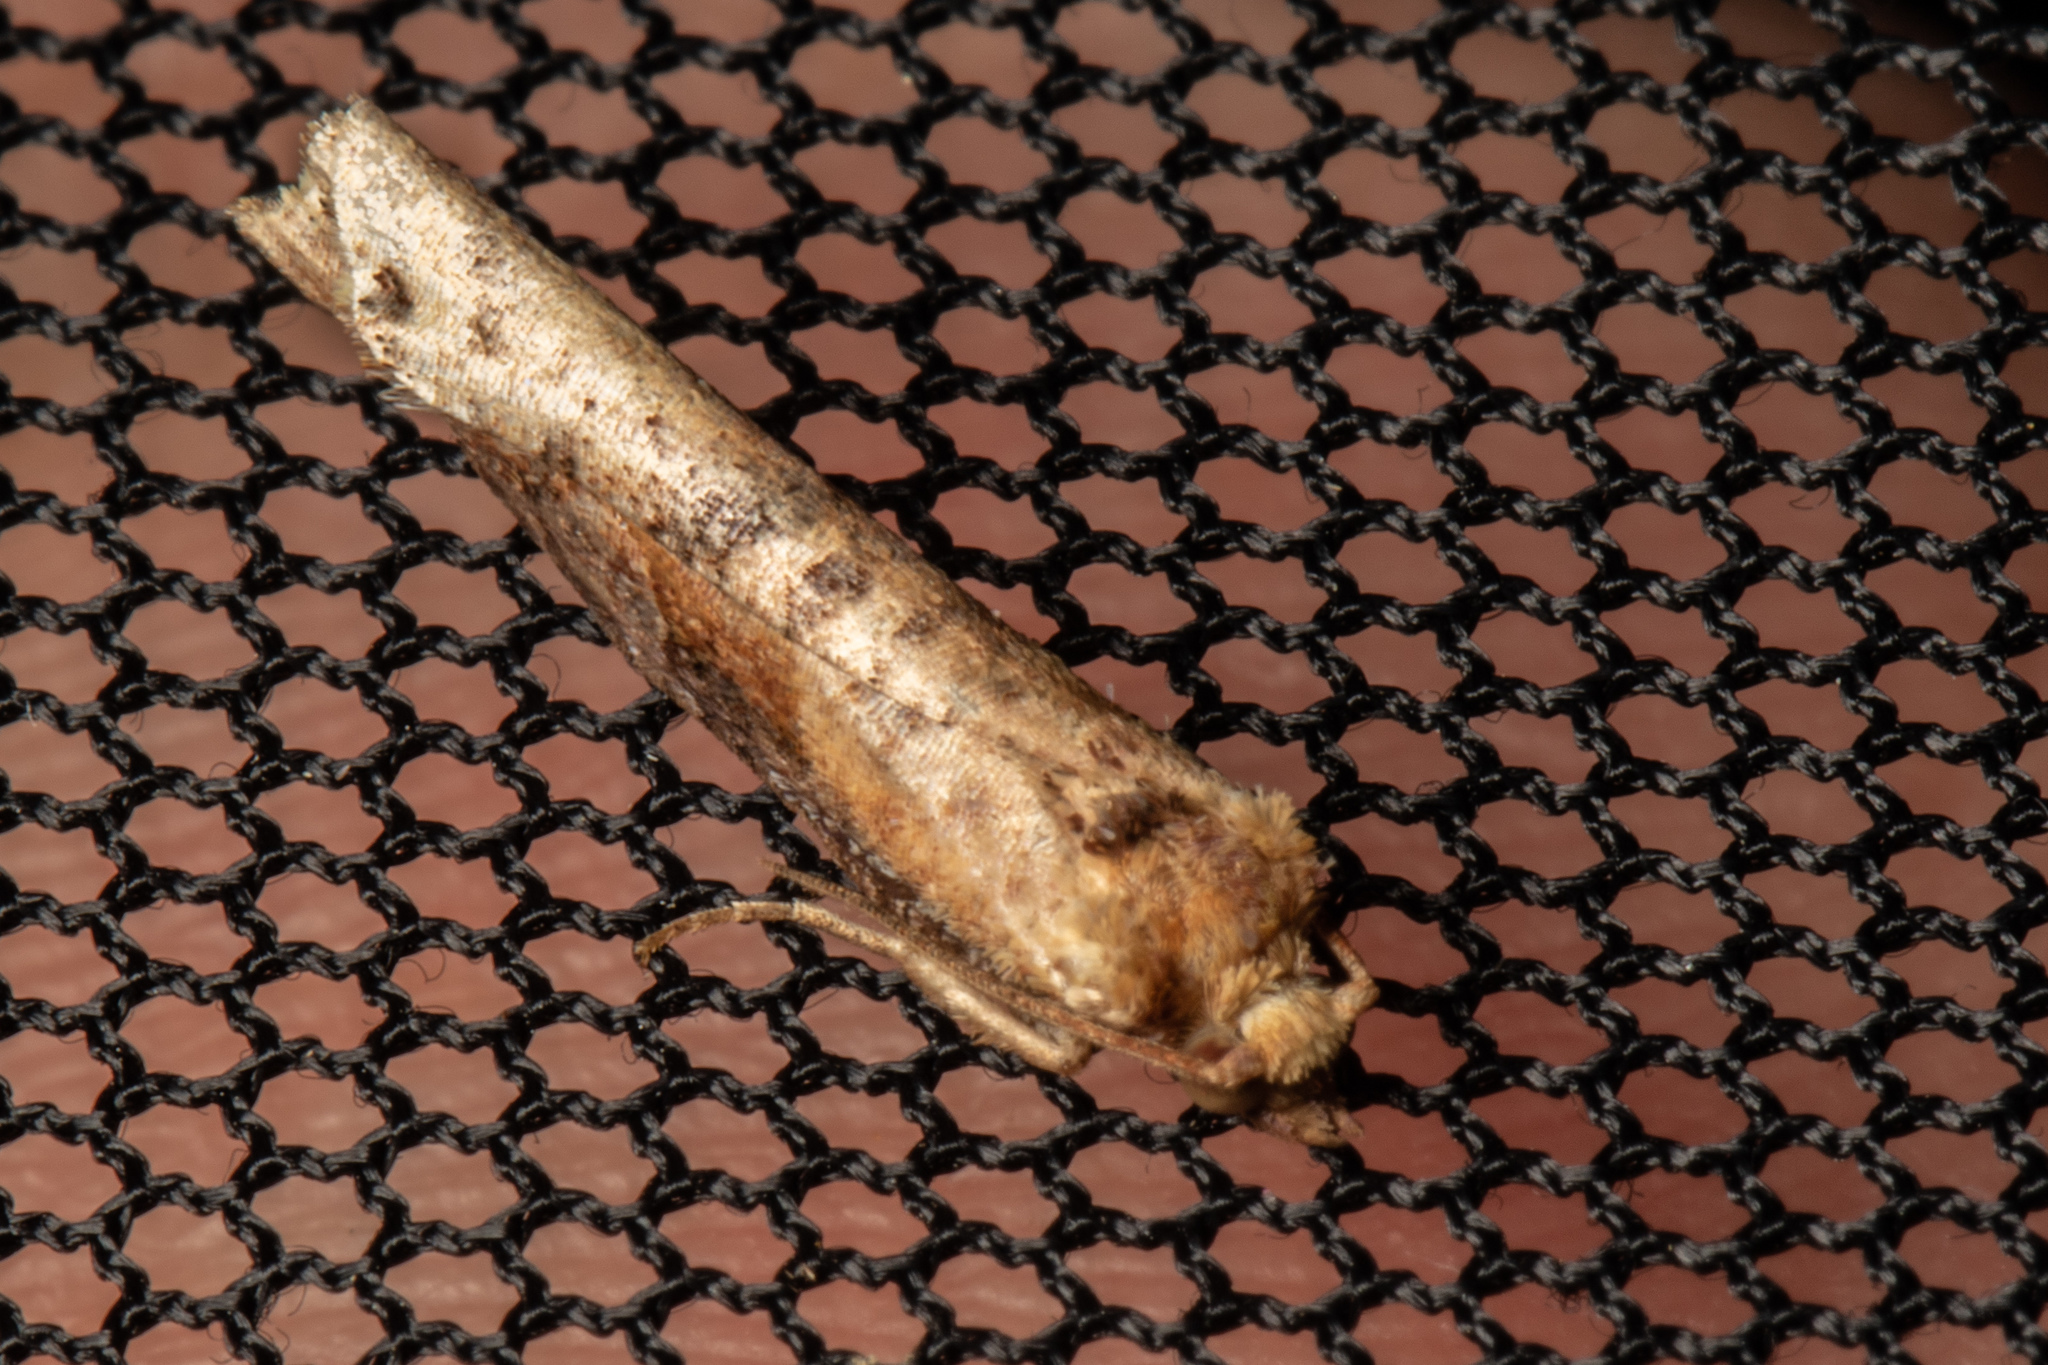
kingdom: Animalia
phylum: Arthropoda
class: Insecta
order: Lepidoptera
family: Tortricidae
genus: Epalxiphora
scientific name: Epalxiphora axenana
